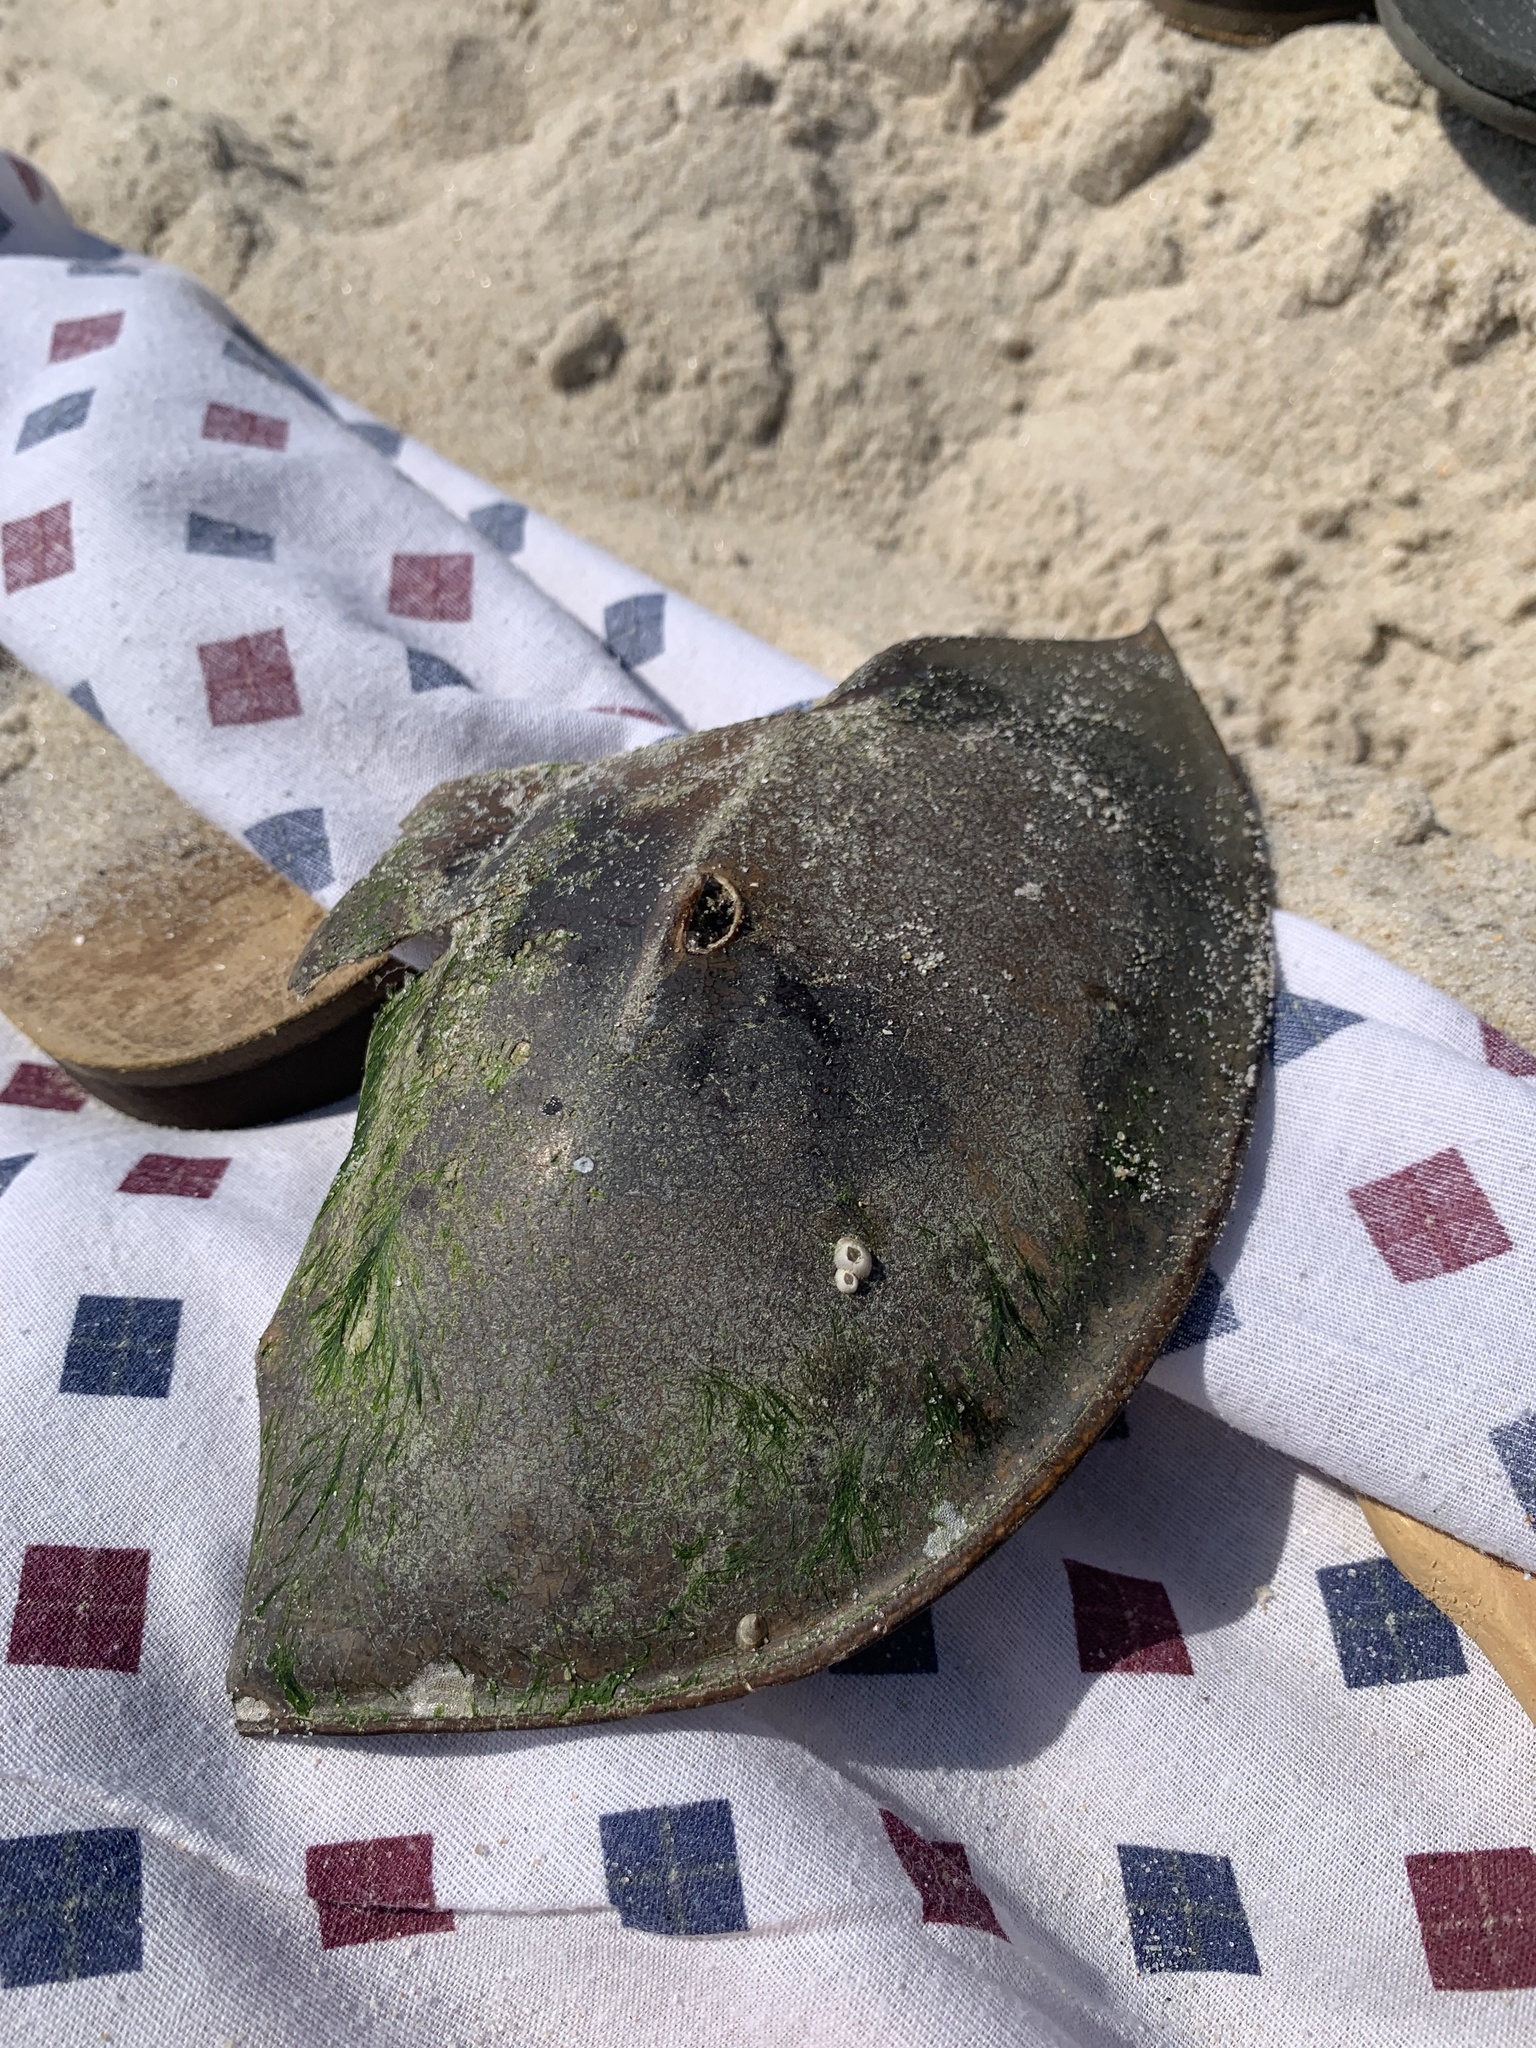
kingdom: Animalia
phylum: Arthropoda
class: Merostomata
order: Xiphosurida
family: Limulidae
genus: Limulus
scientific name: Limulus polyphemus
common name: Horseshoe crab
